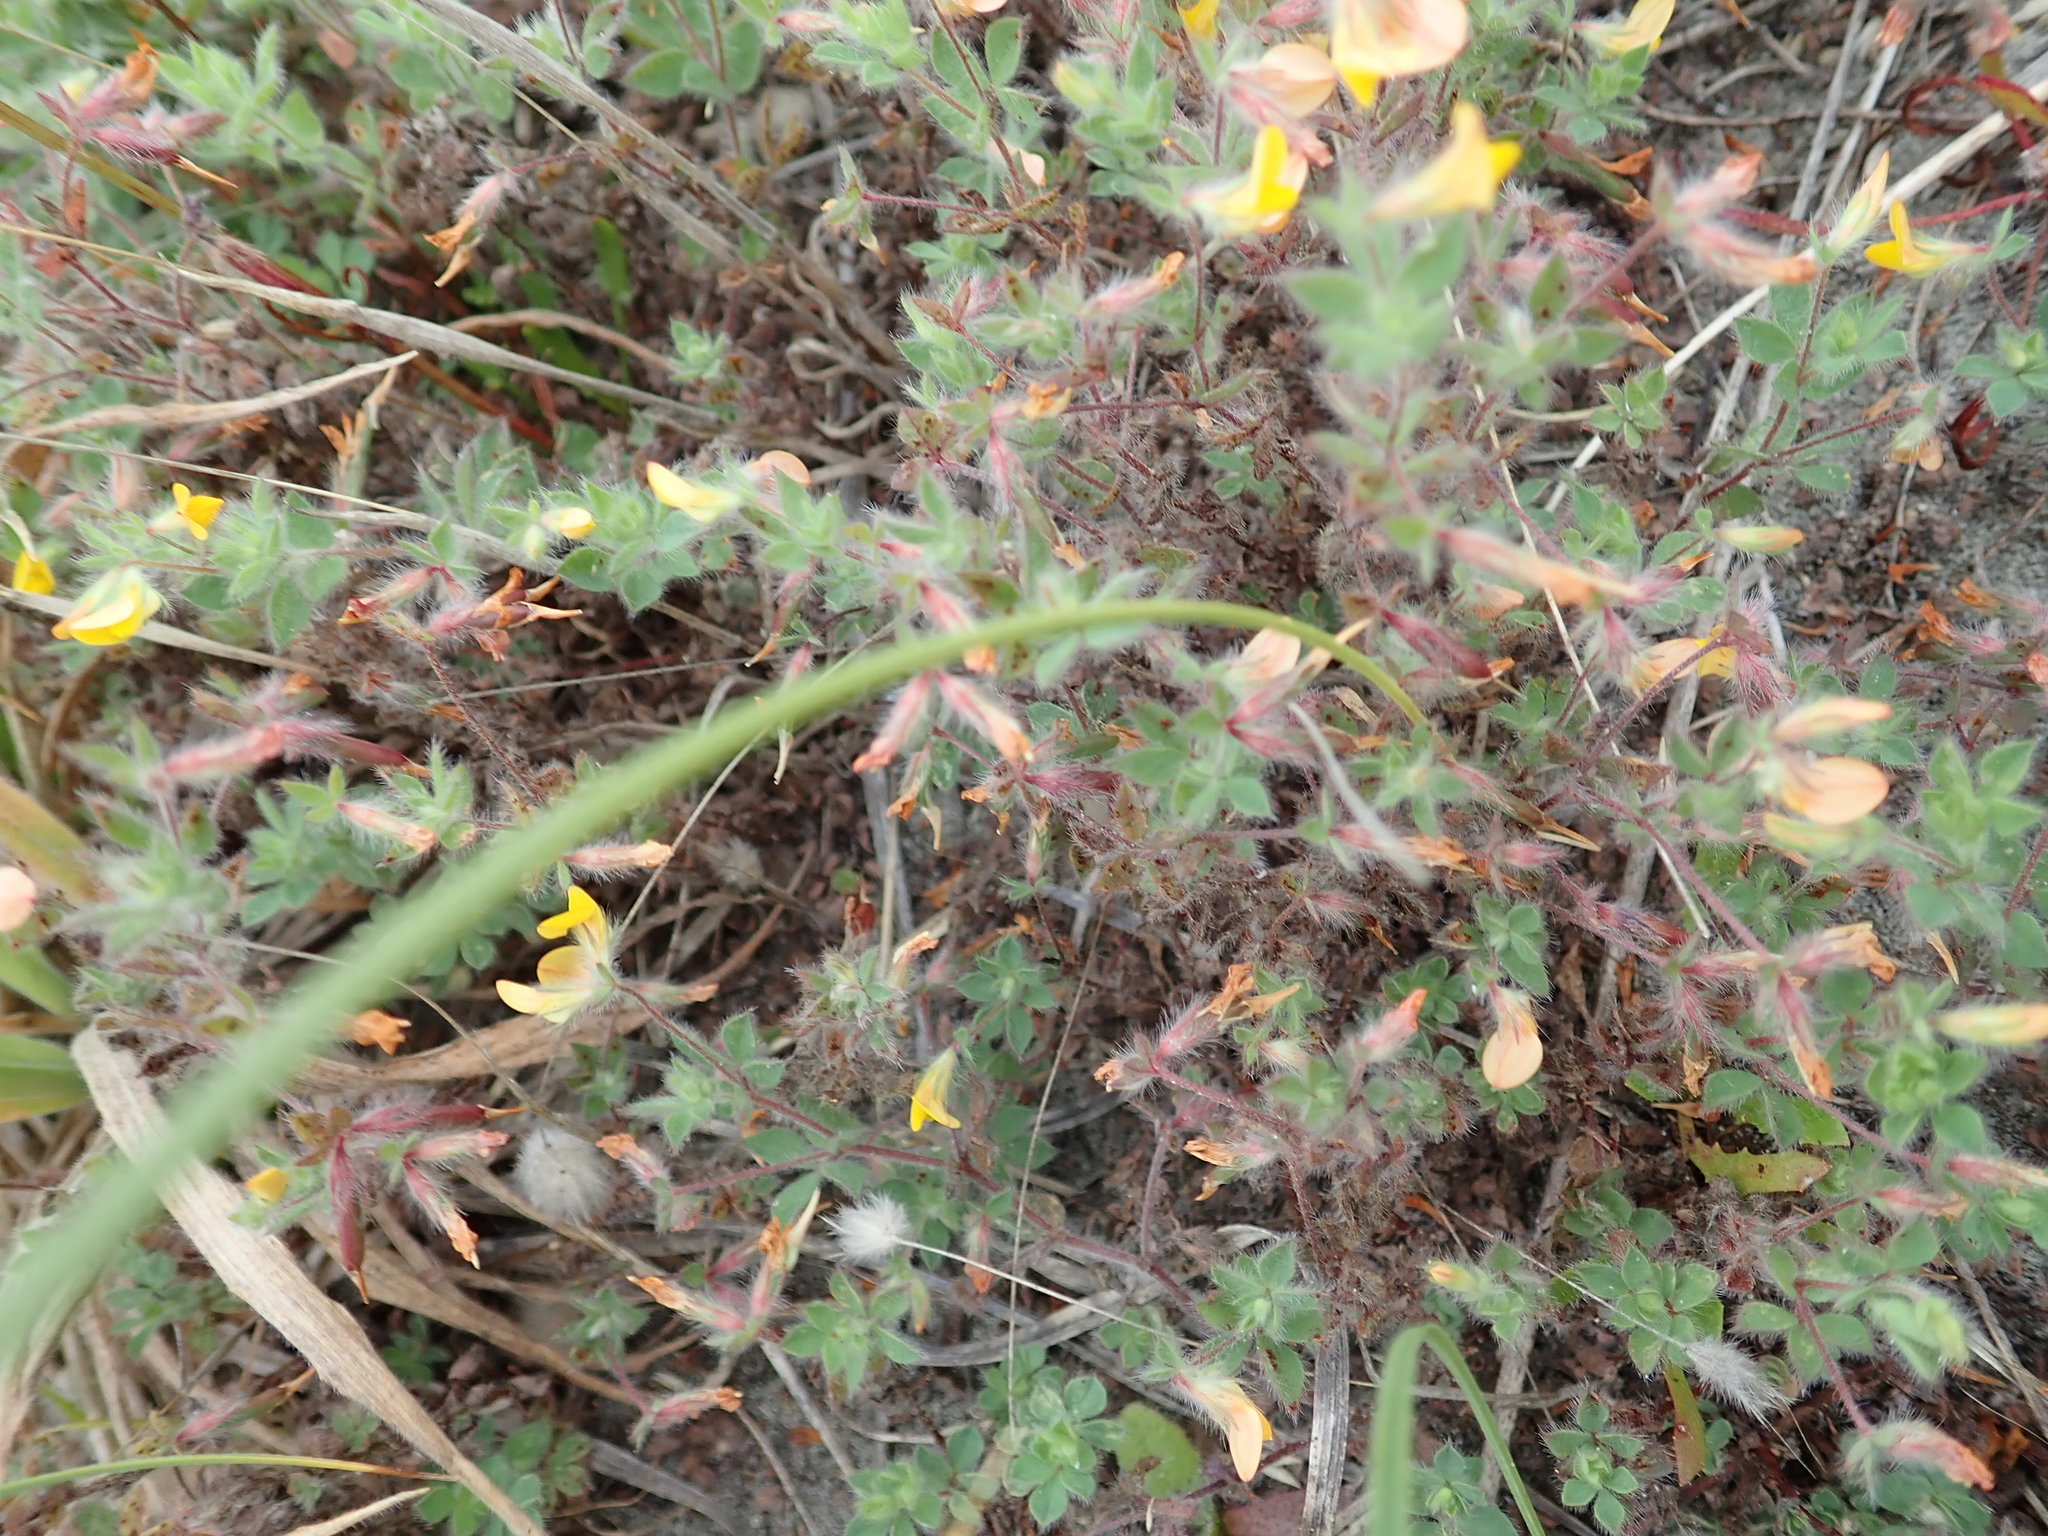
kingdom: Plantae
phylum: Tracheophyta
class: Magnoliopsida
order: Fabales
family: Fabaceae
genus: Lotus
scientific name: Lotus subbiflorus
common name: Hairy bird's-foot trefoil
